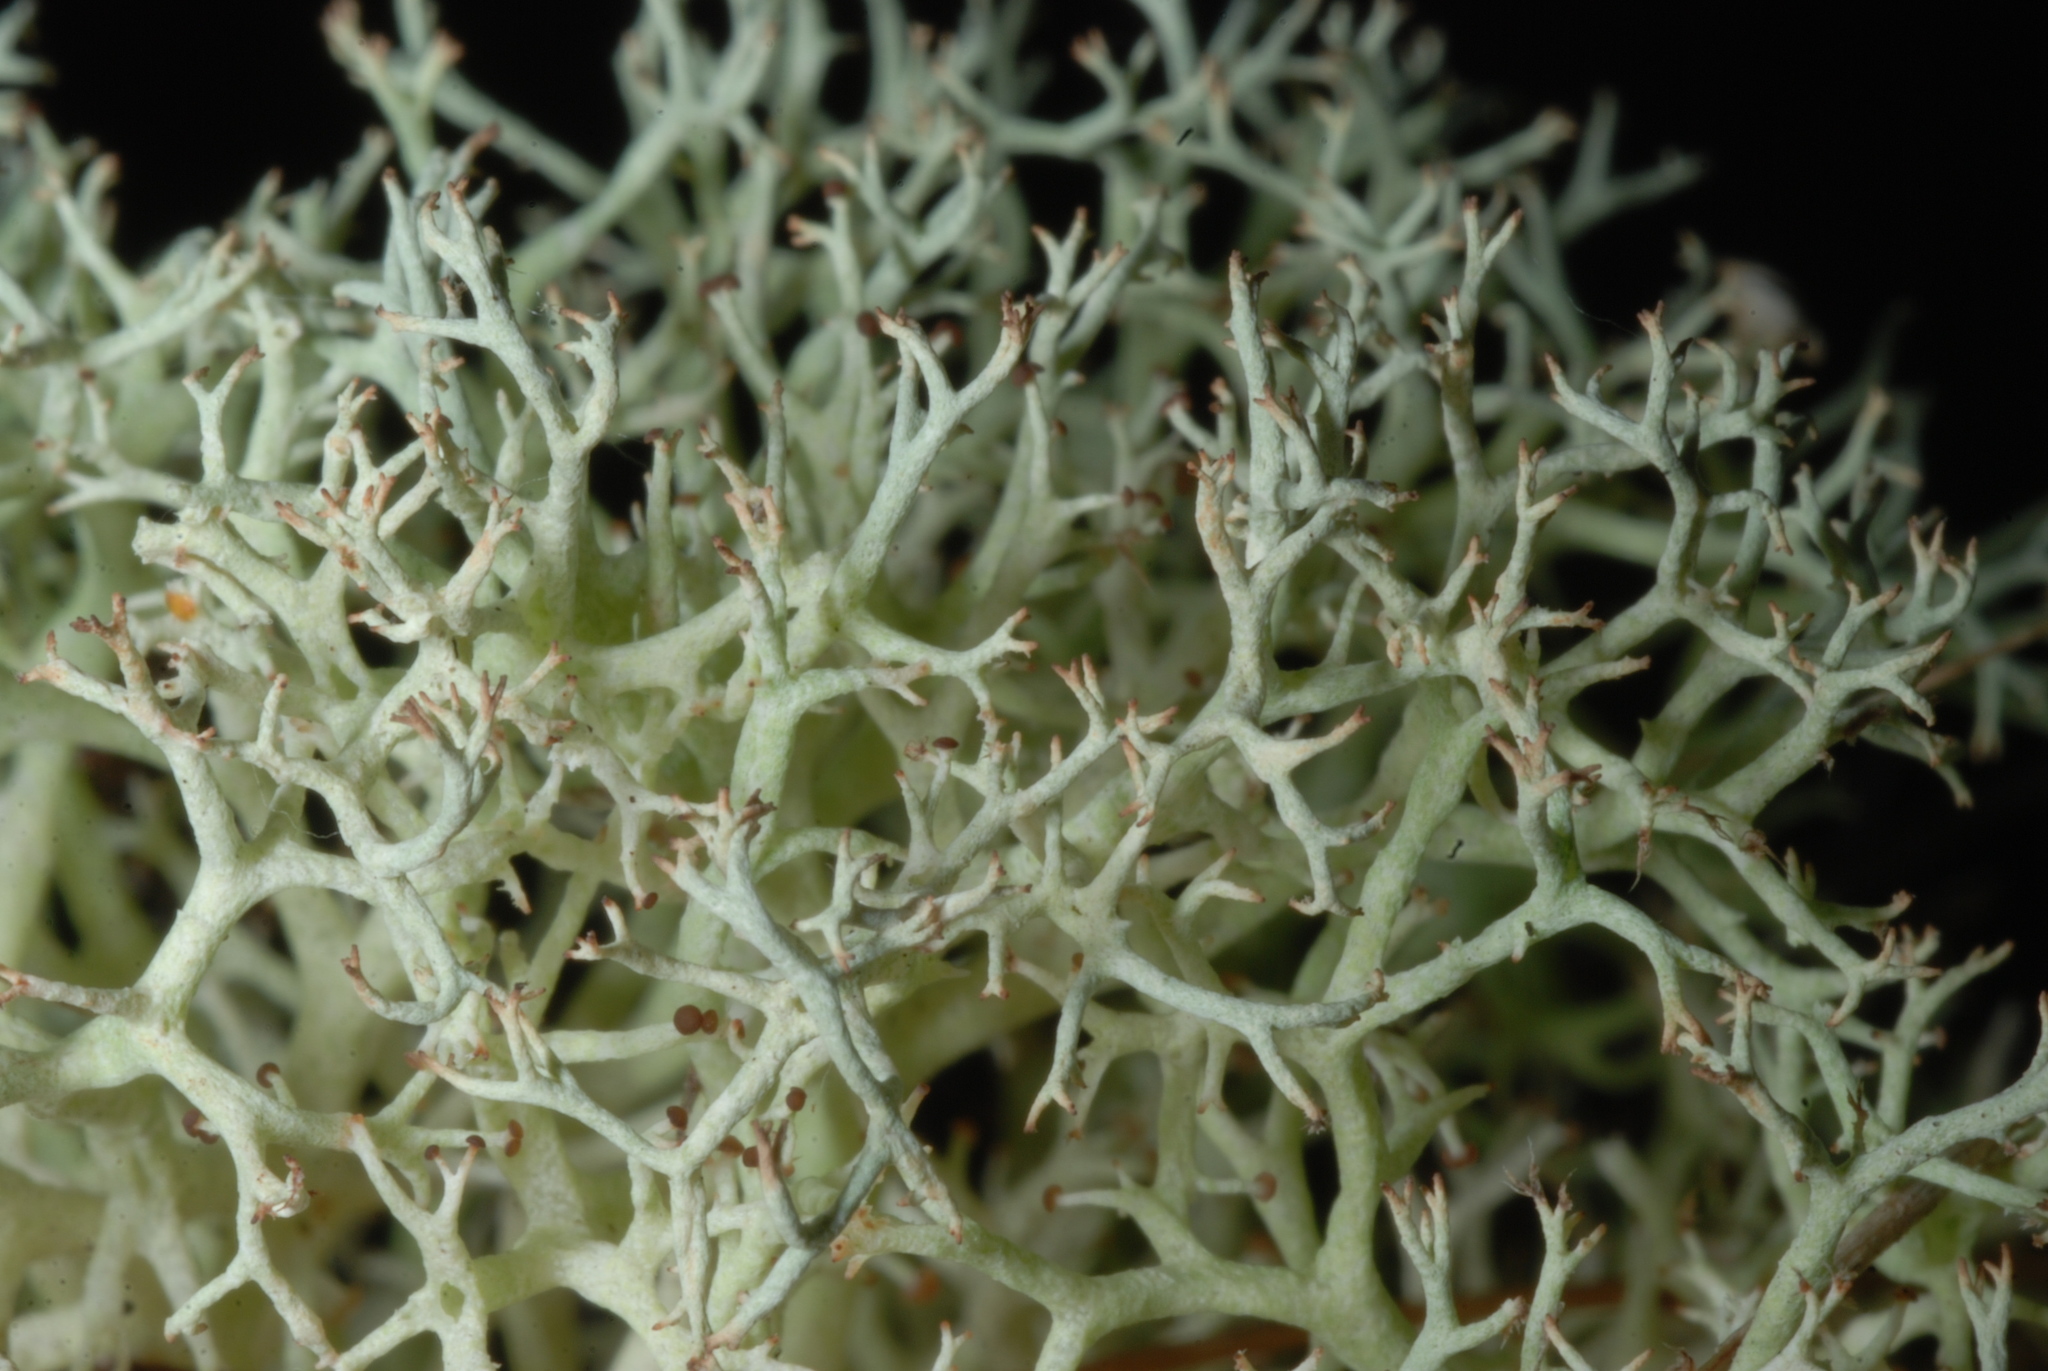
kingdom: Fungi
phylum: Ascomycota
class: Lecanoromycetes
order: Lecanorales
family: Cladoniaceae
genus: Cladonia
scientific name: Cladonia subtenuis
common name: Dixie reindeer lichen
